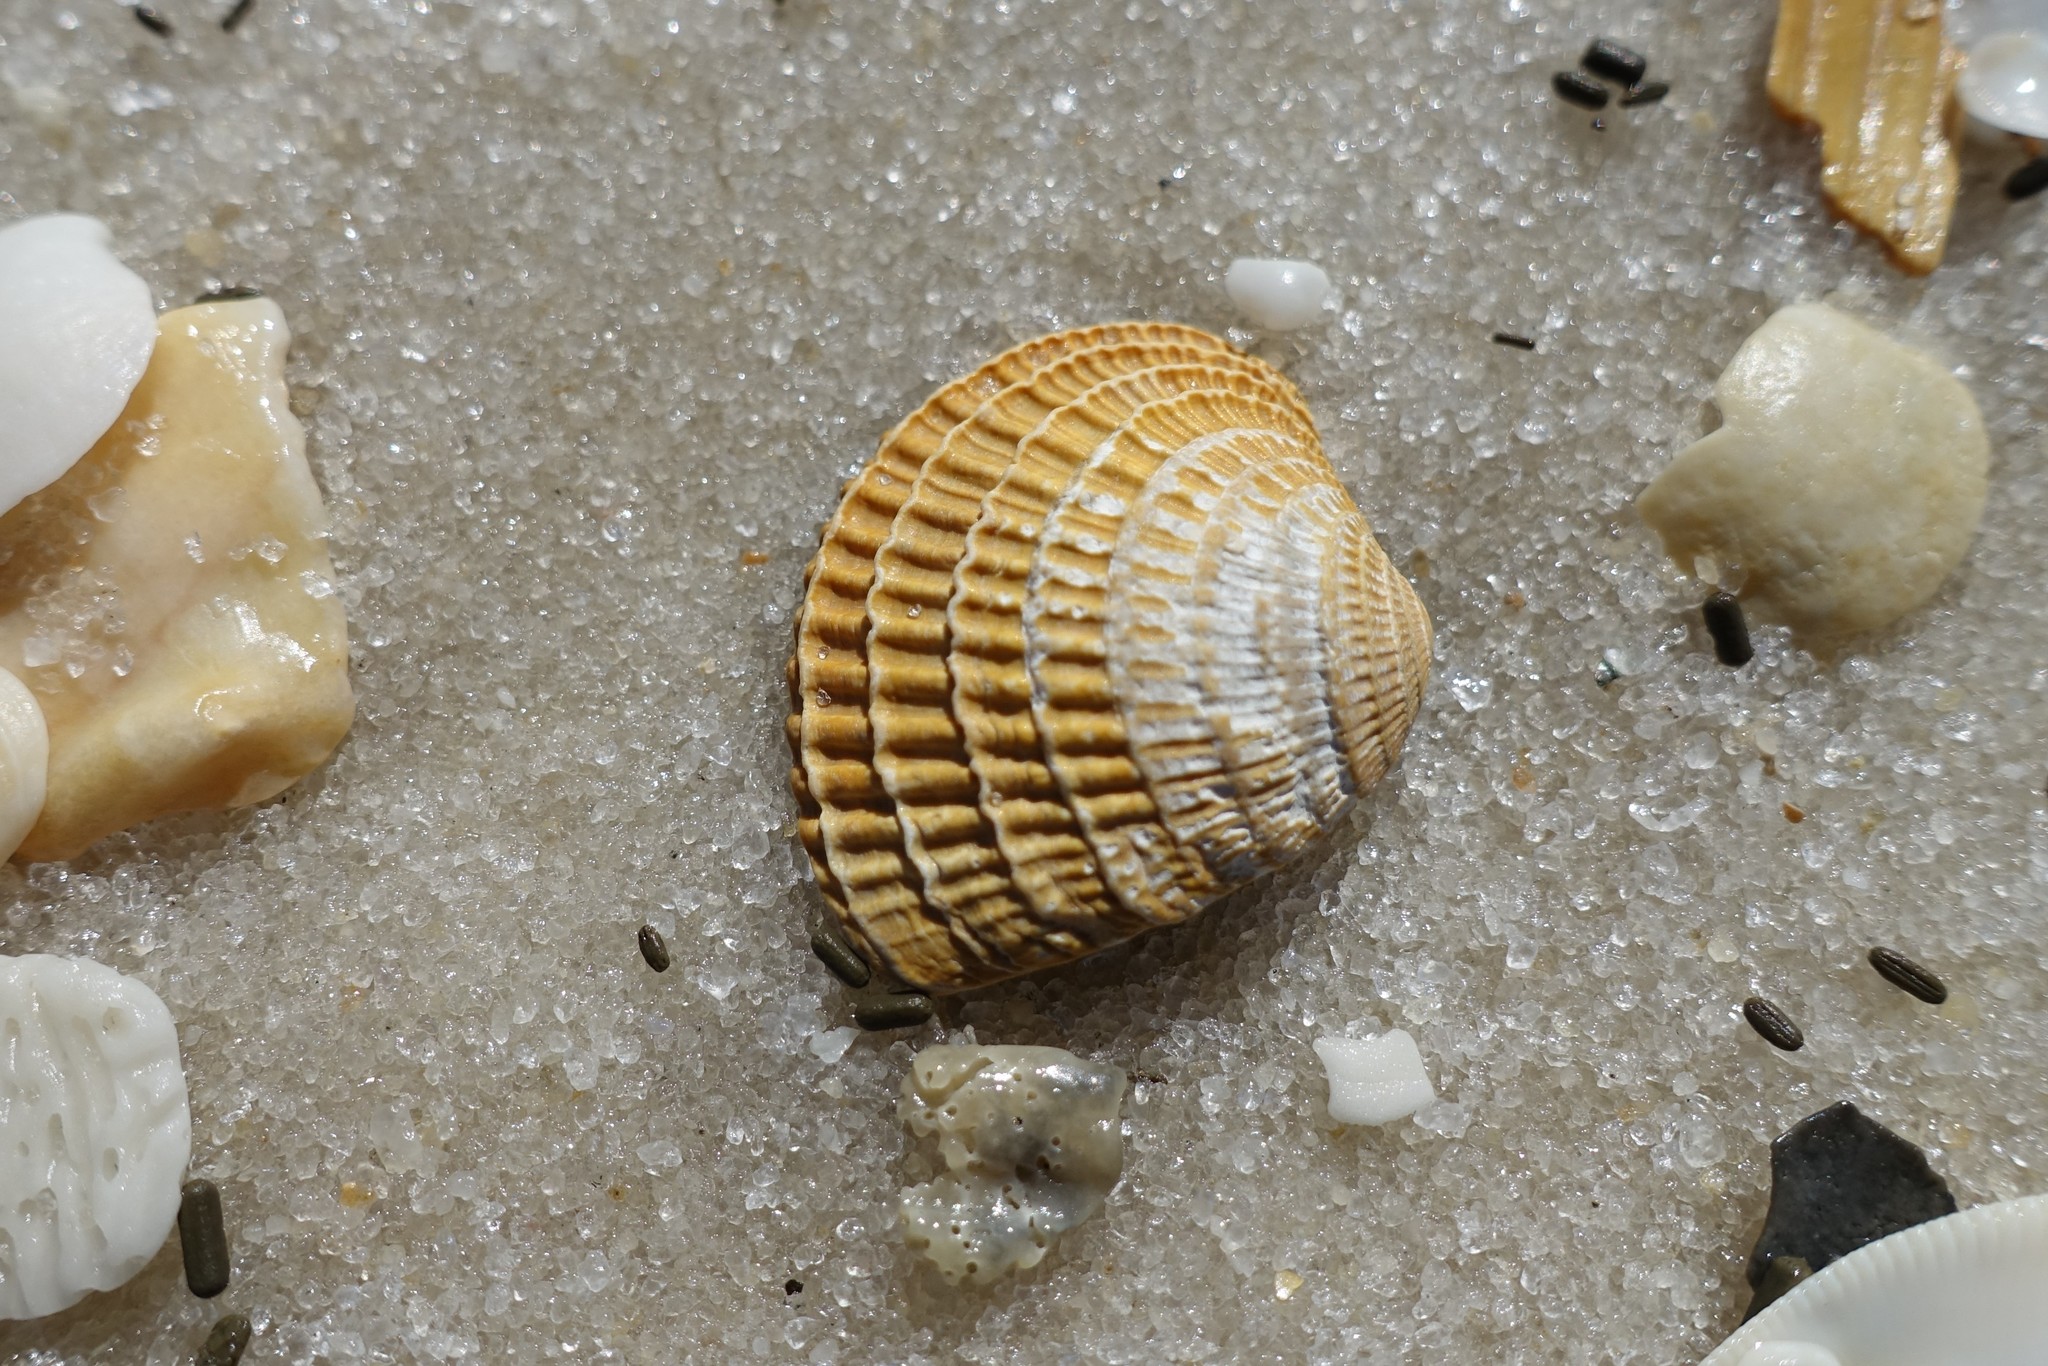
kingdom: Animalia
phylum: Mollusca
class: Bivalvia
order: Venerida
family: Veneridae
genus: Chione
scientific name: Chione elevata
